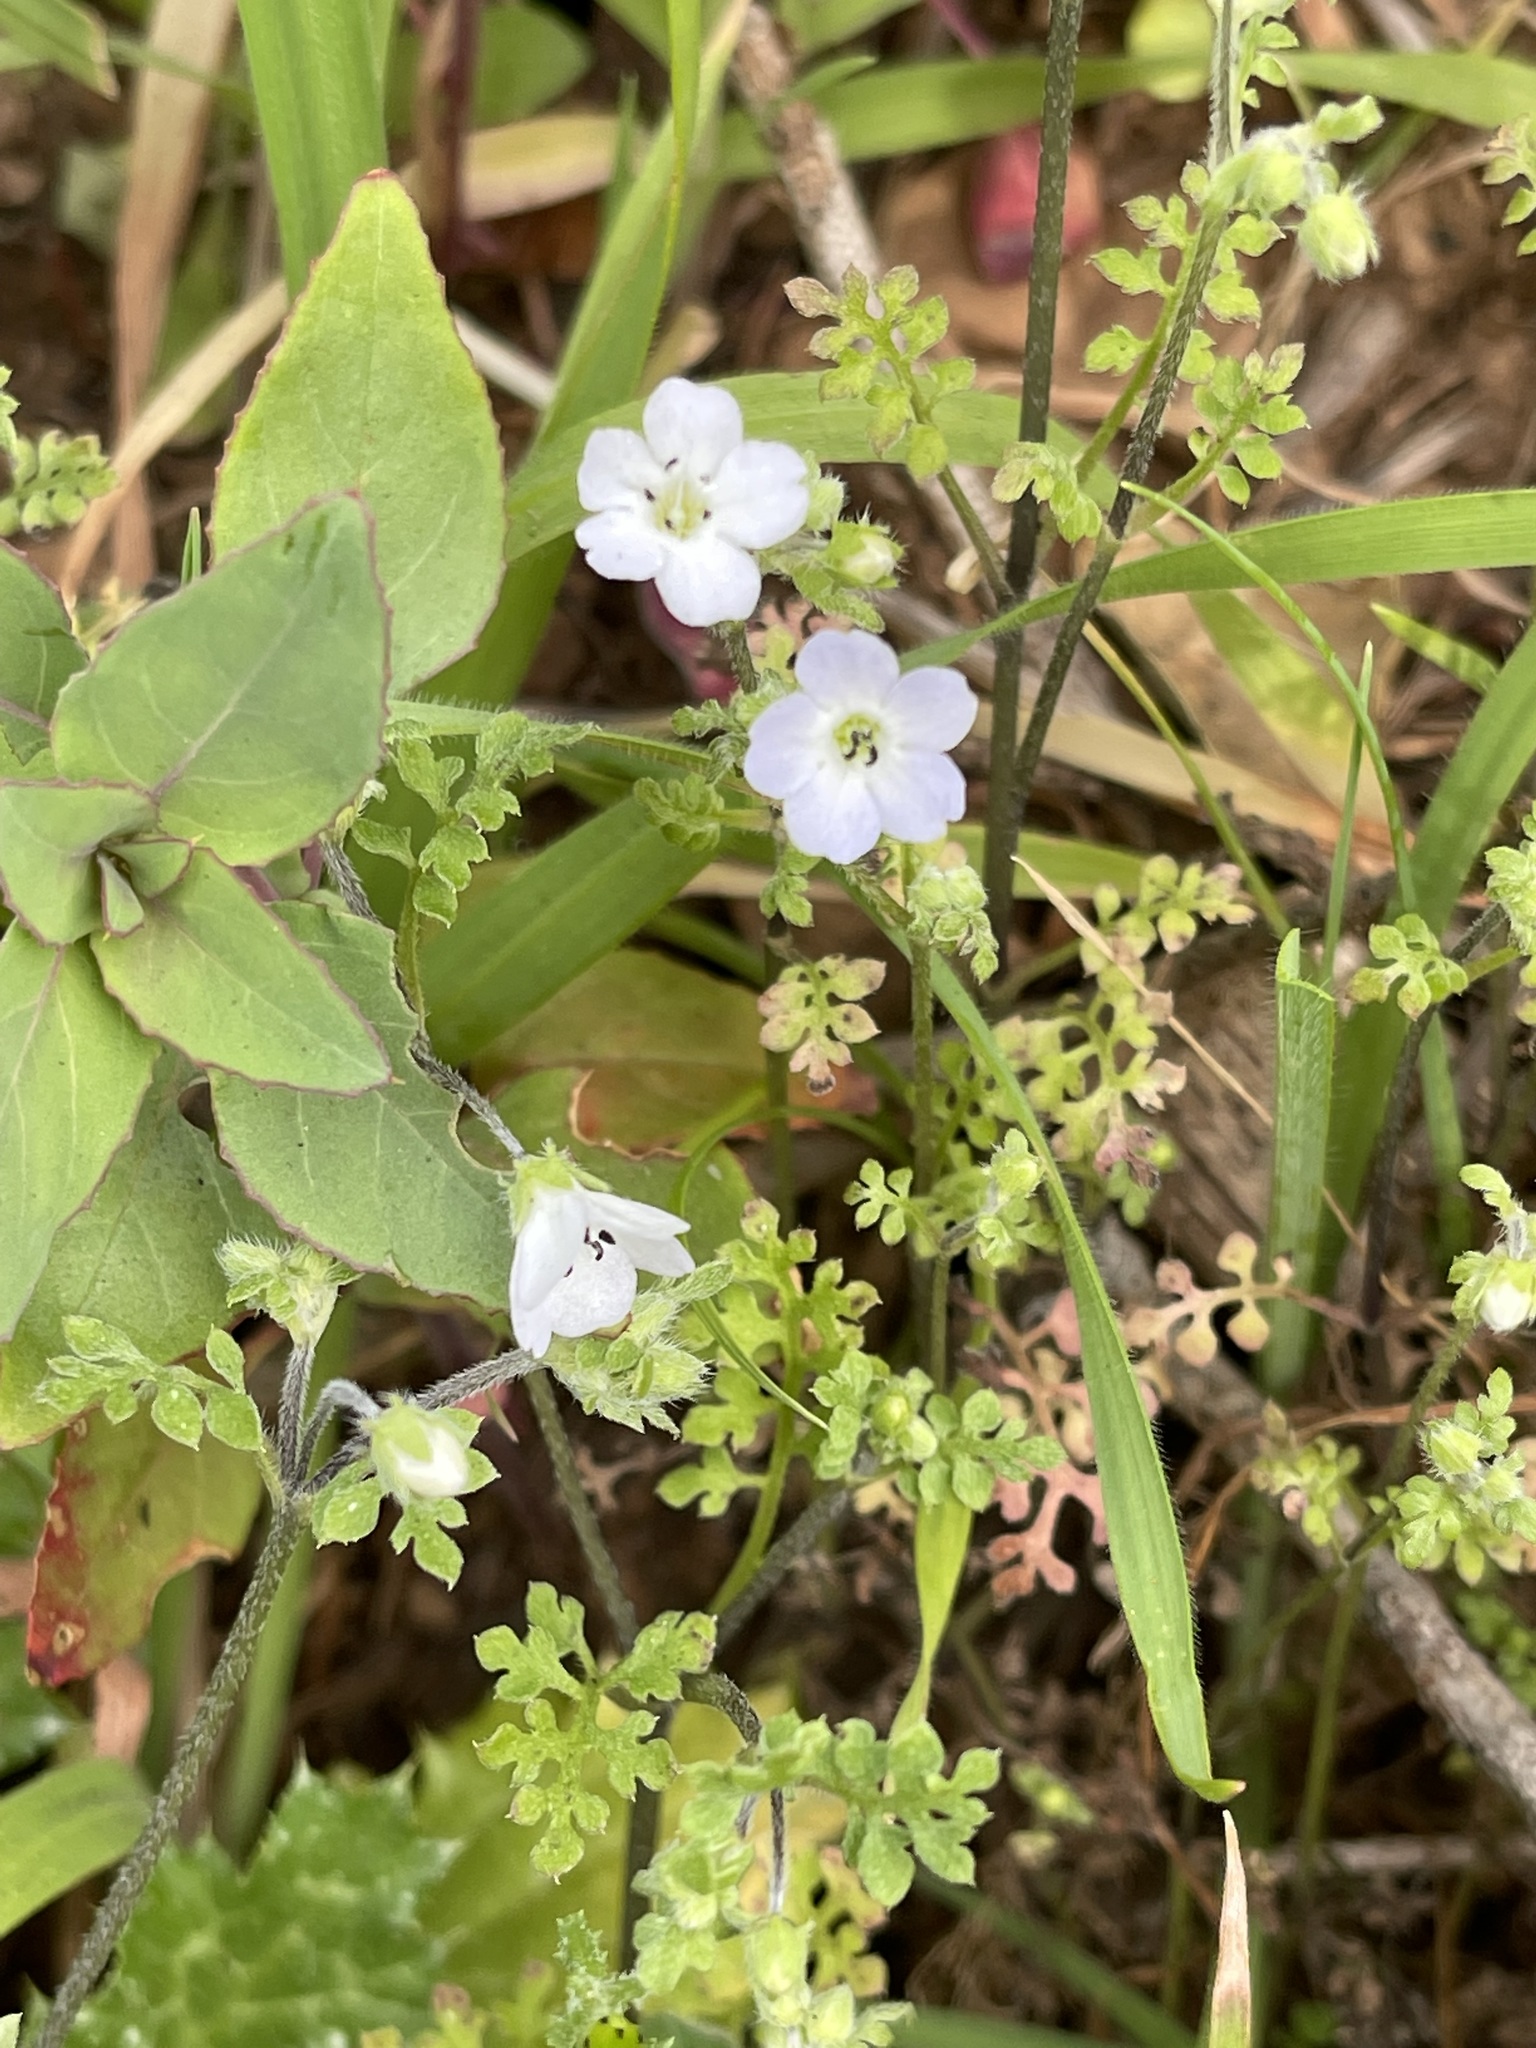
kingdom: Plantae
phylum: Tracheophyta
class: Magnoliopsida
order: Boraginales
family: Hydrophyllaceae
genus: Nemophila
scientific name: Nemophila heterophylla
